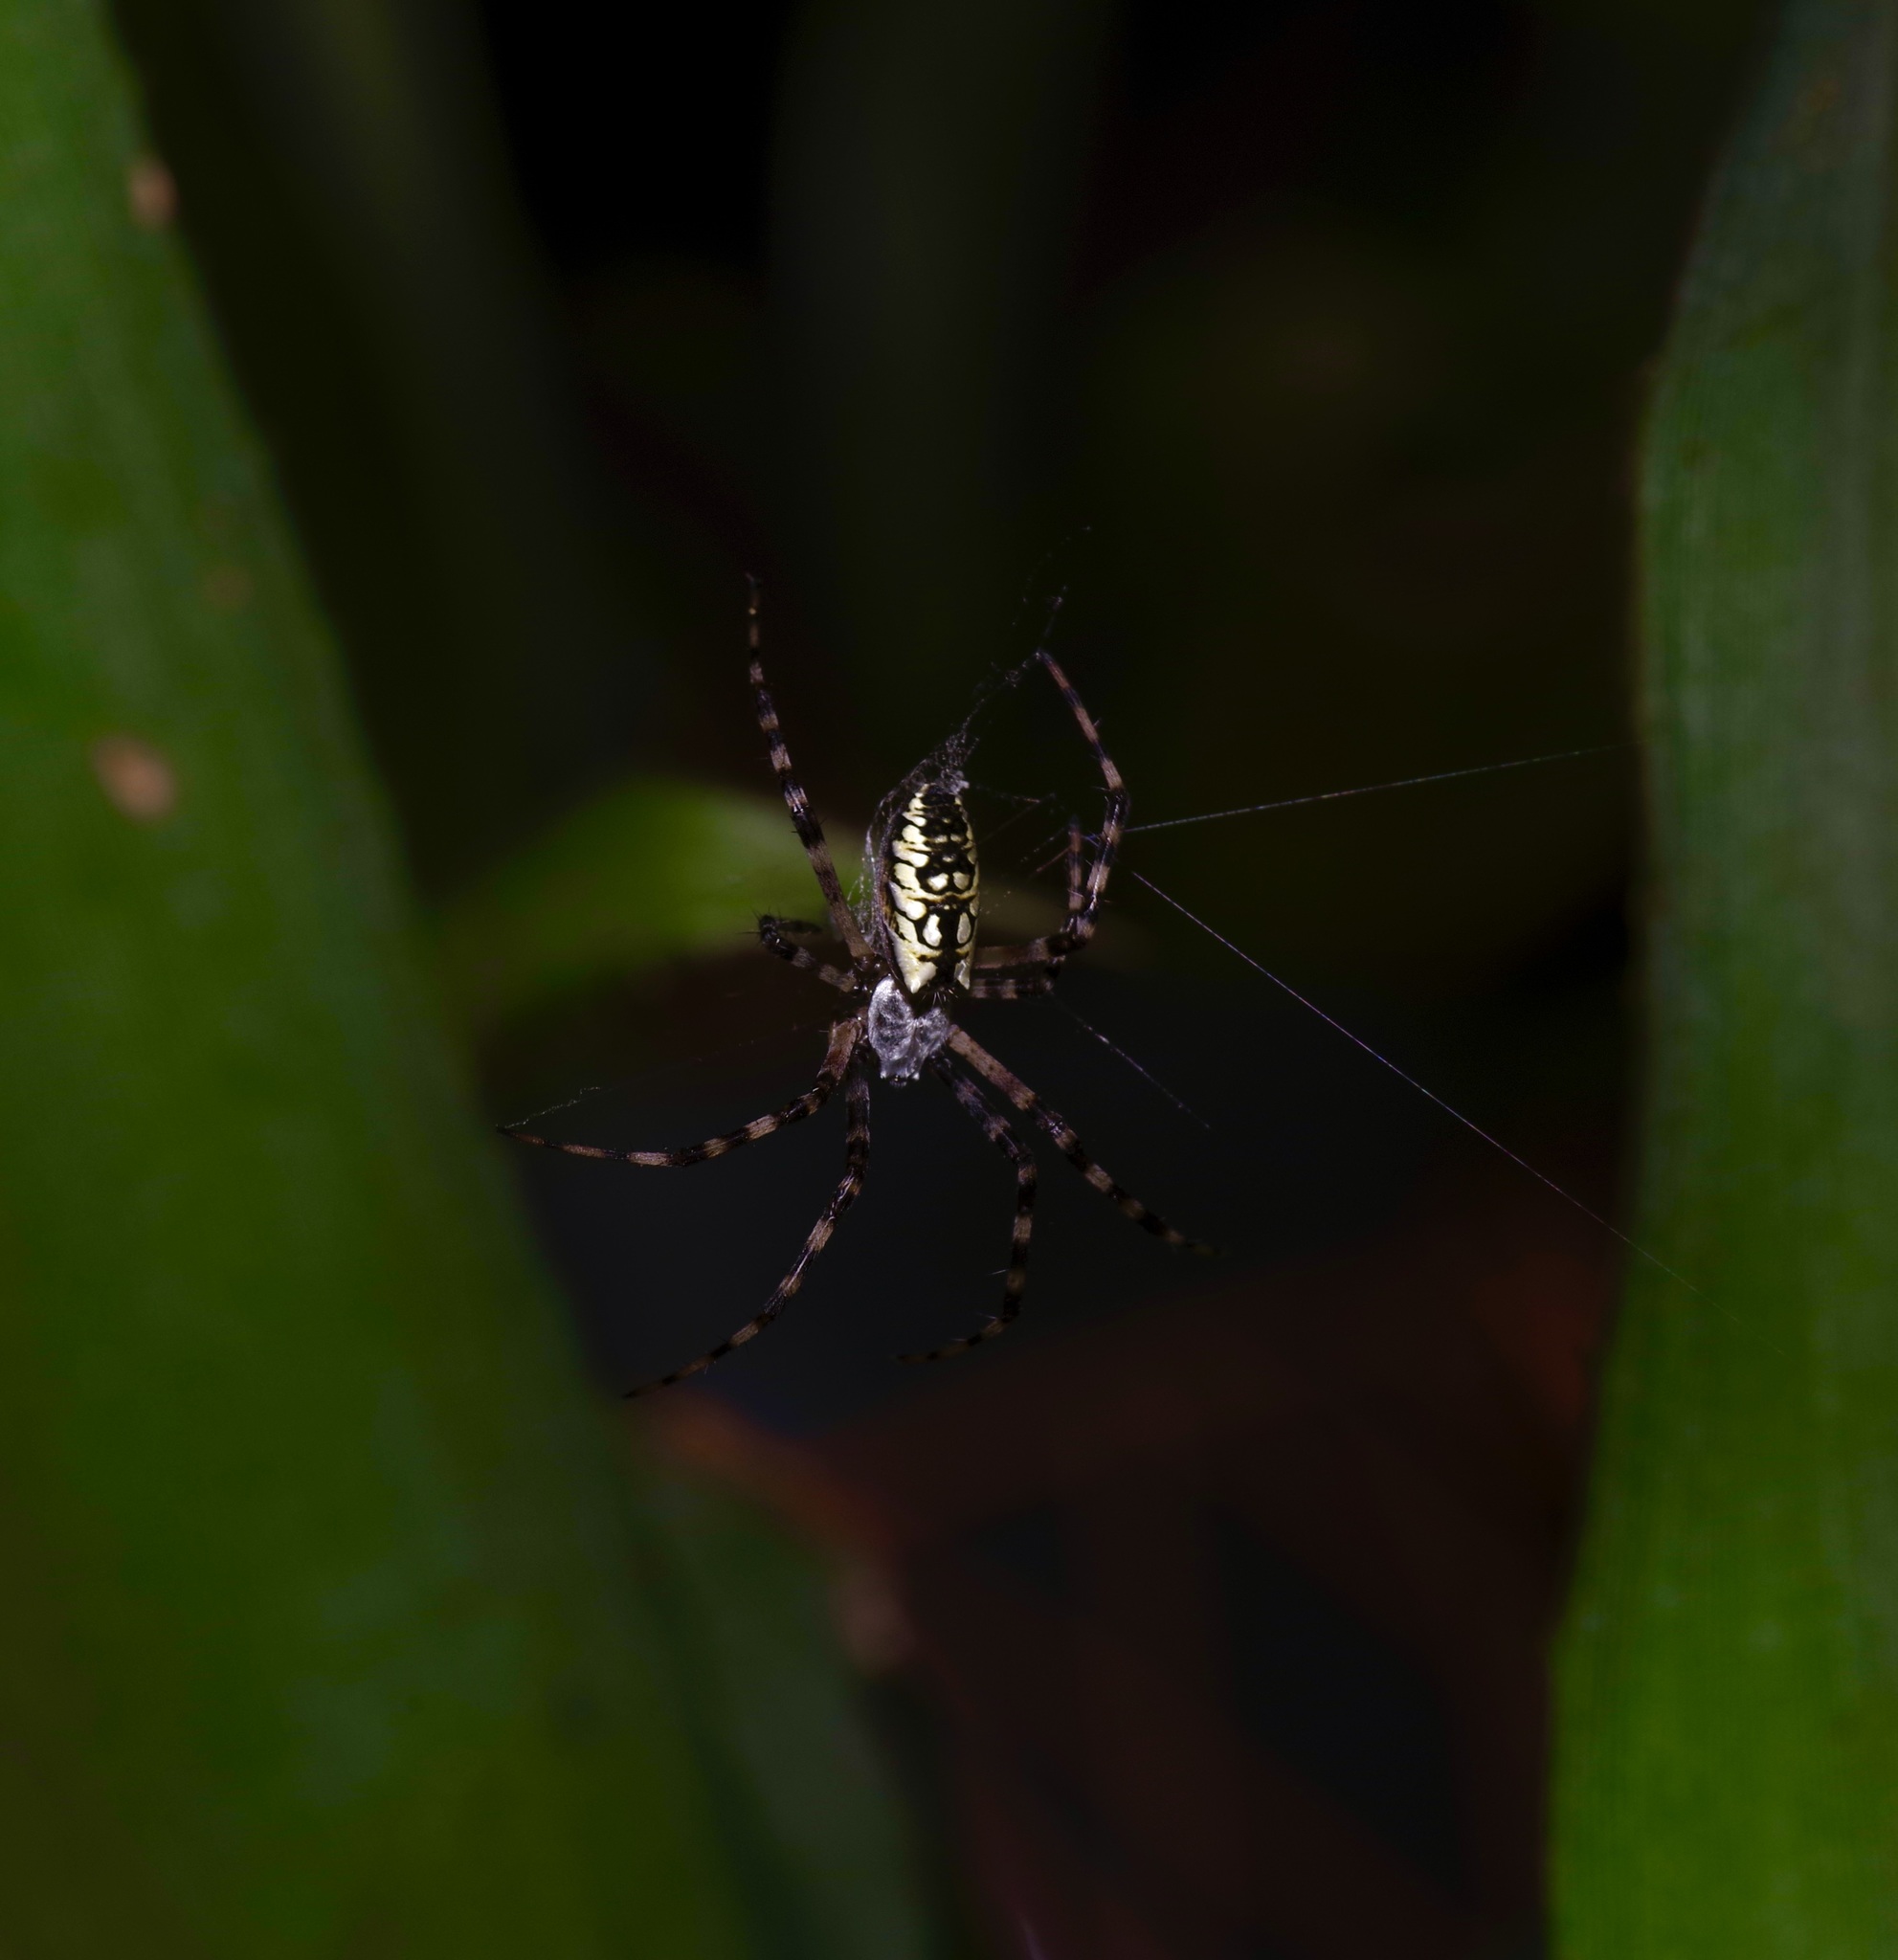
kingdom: Animalia
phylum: Arthropoda
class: Arachnida
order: Araneae
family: Araneidae
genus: Argiope
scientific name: Argiope aurantia
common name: Orb weavers
